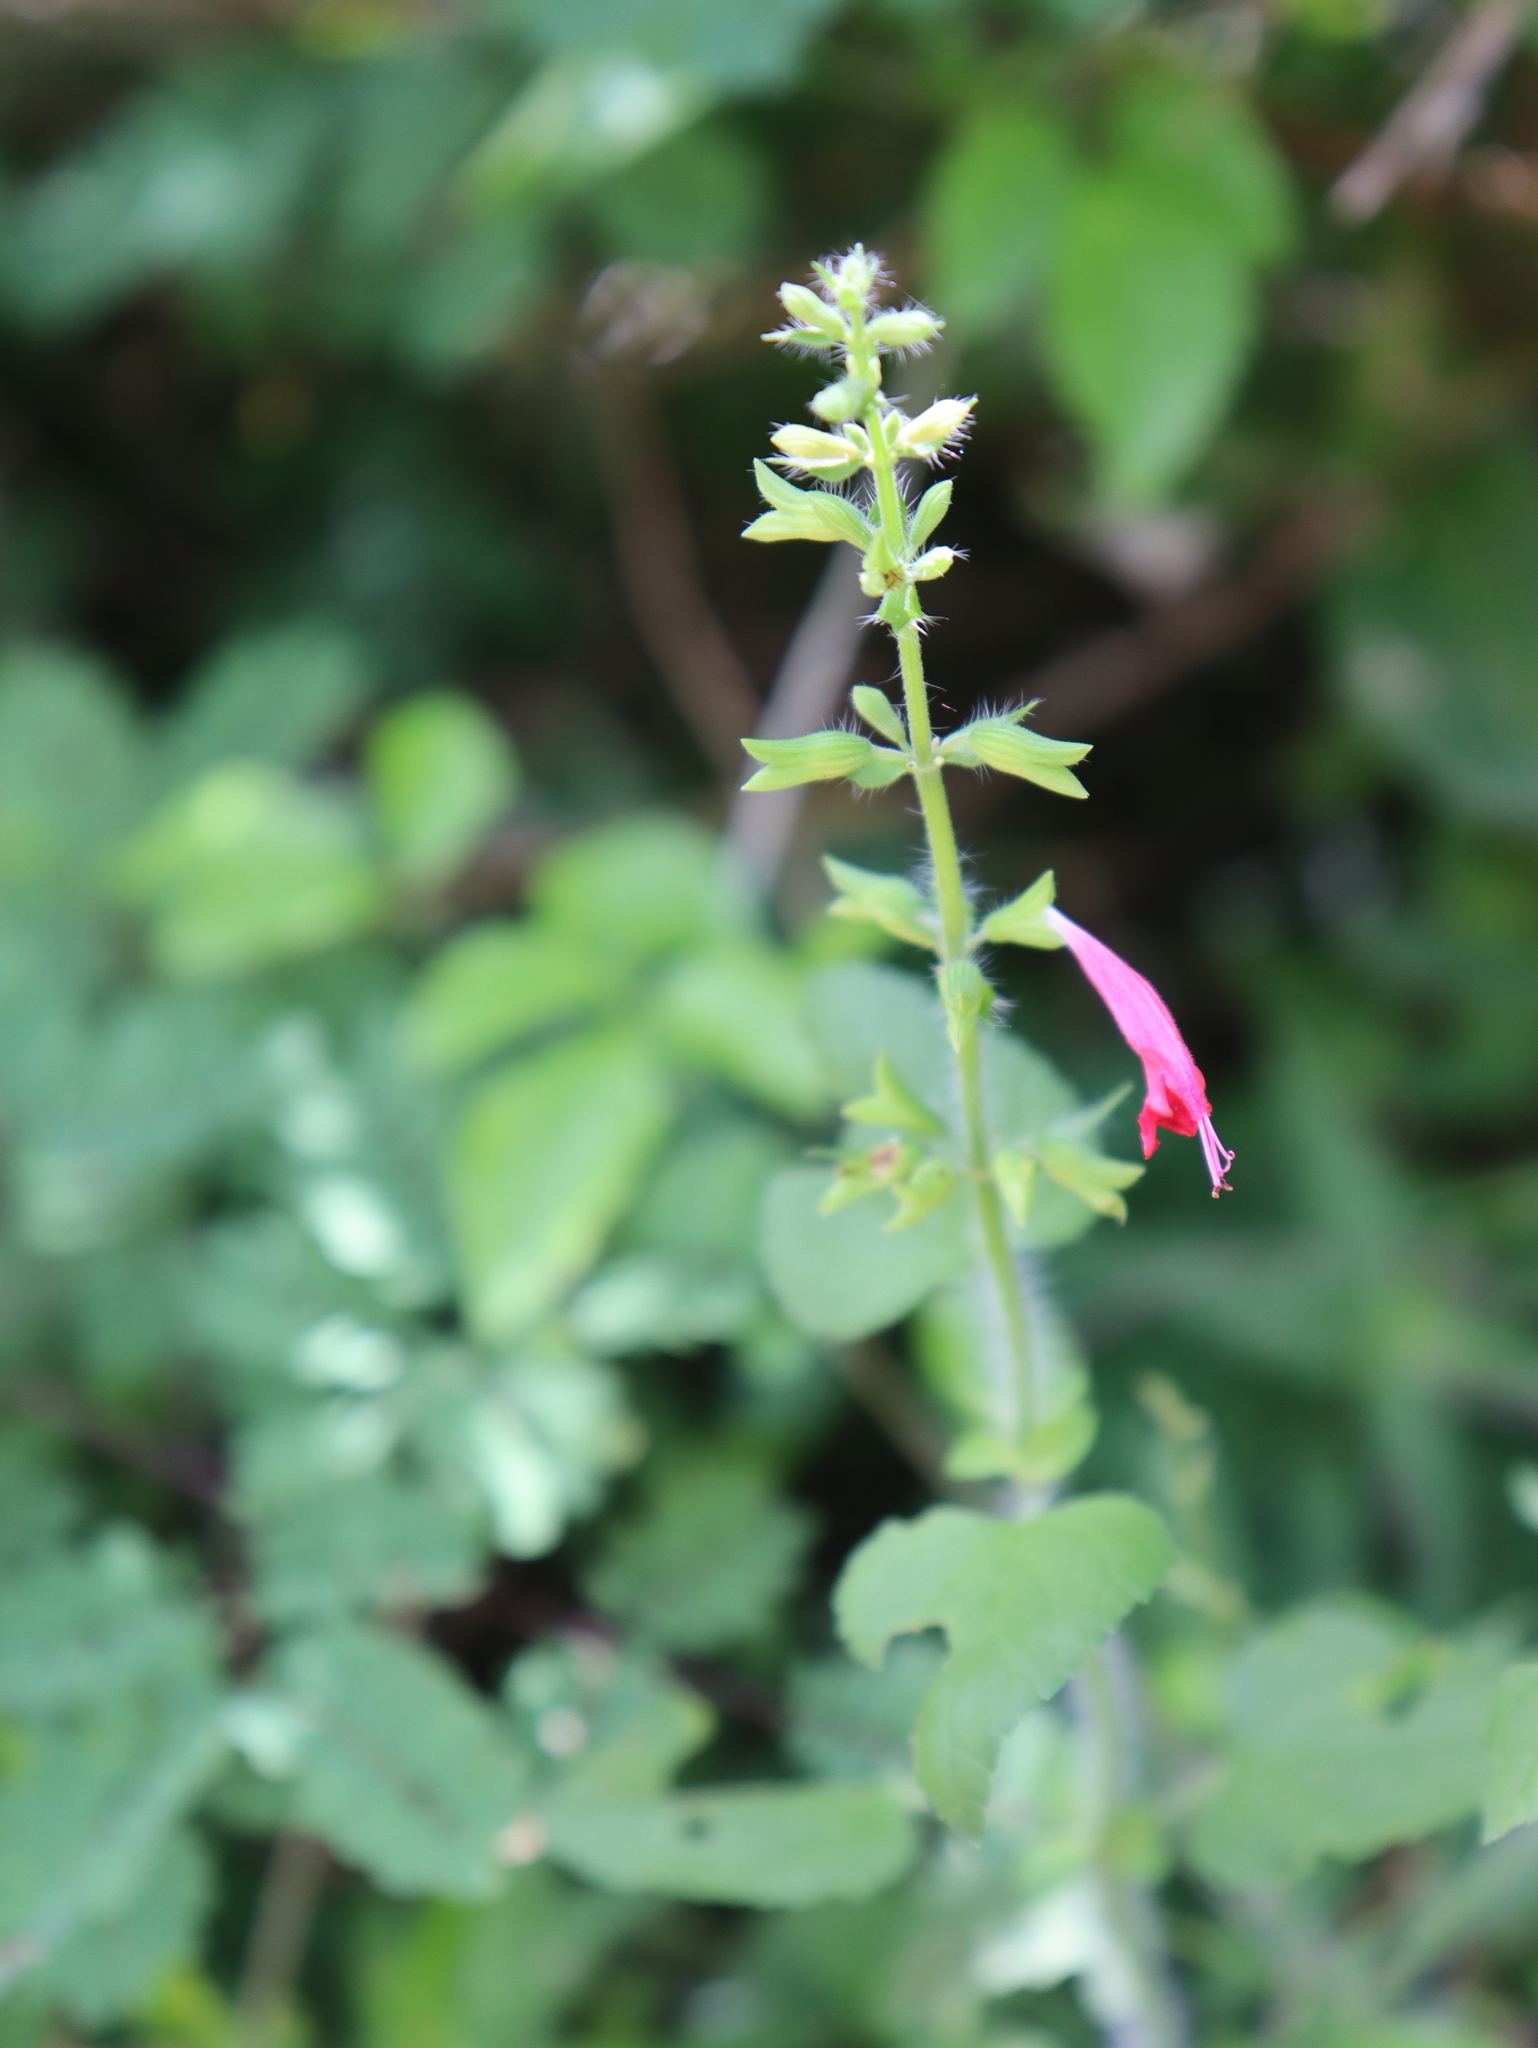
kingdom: Plantae
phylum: Tracheophyta
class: Magnoliopsida
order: Lamiales
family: Lamiaceae
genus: Salvia
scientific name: Salvia coccinea
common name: Blood sage
